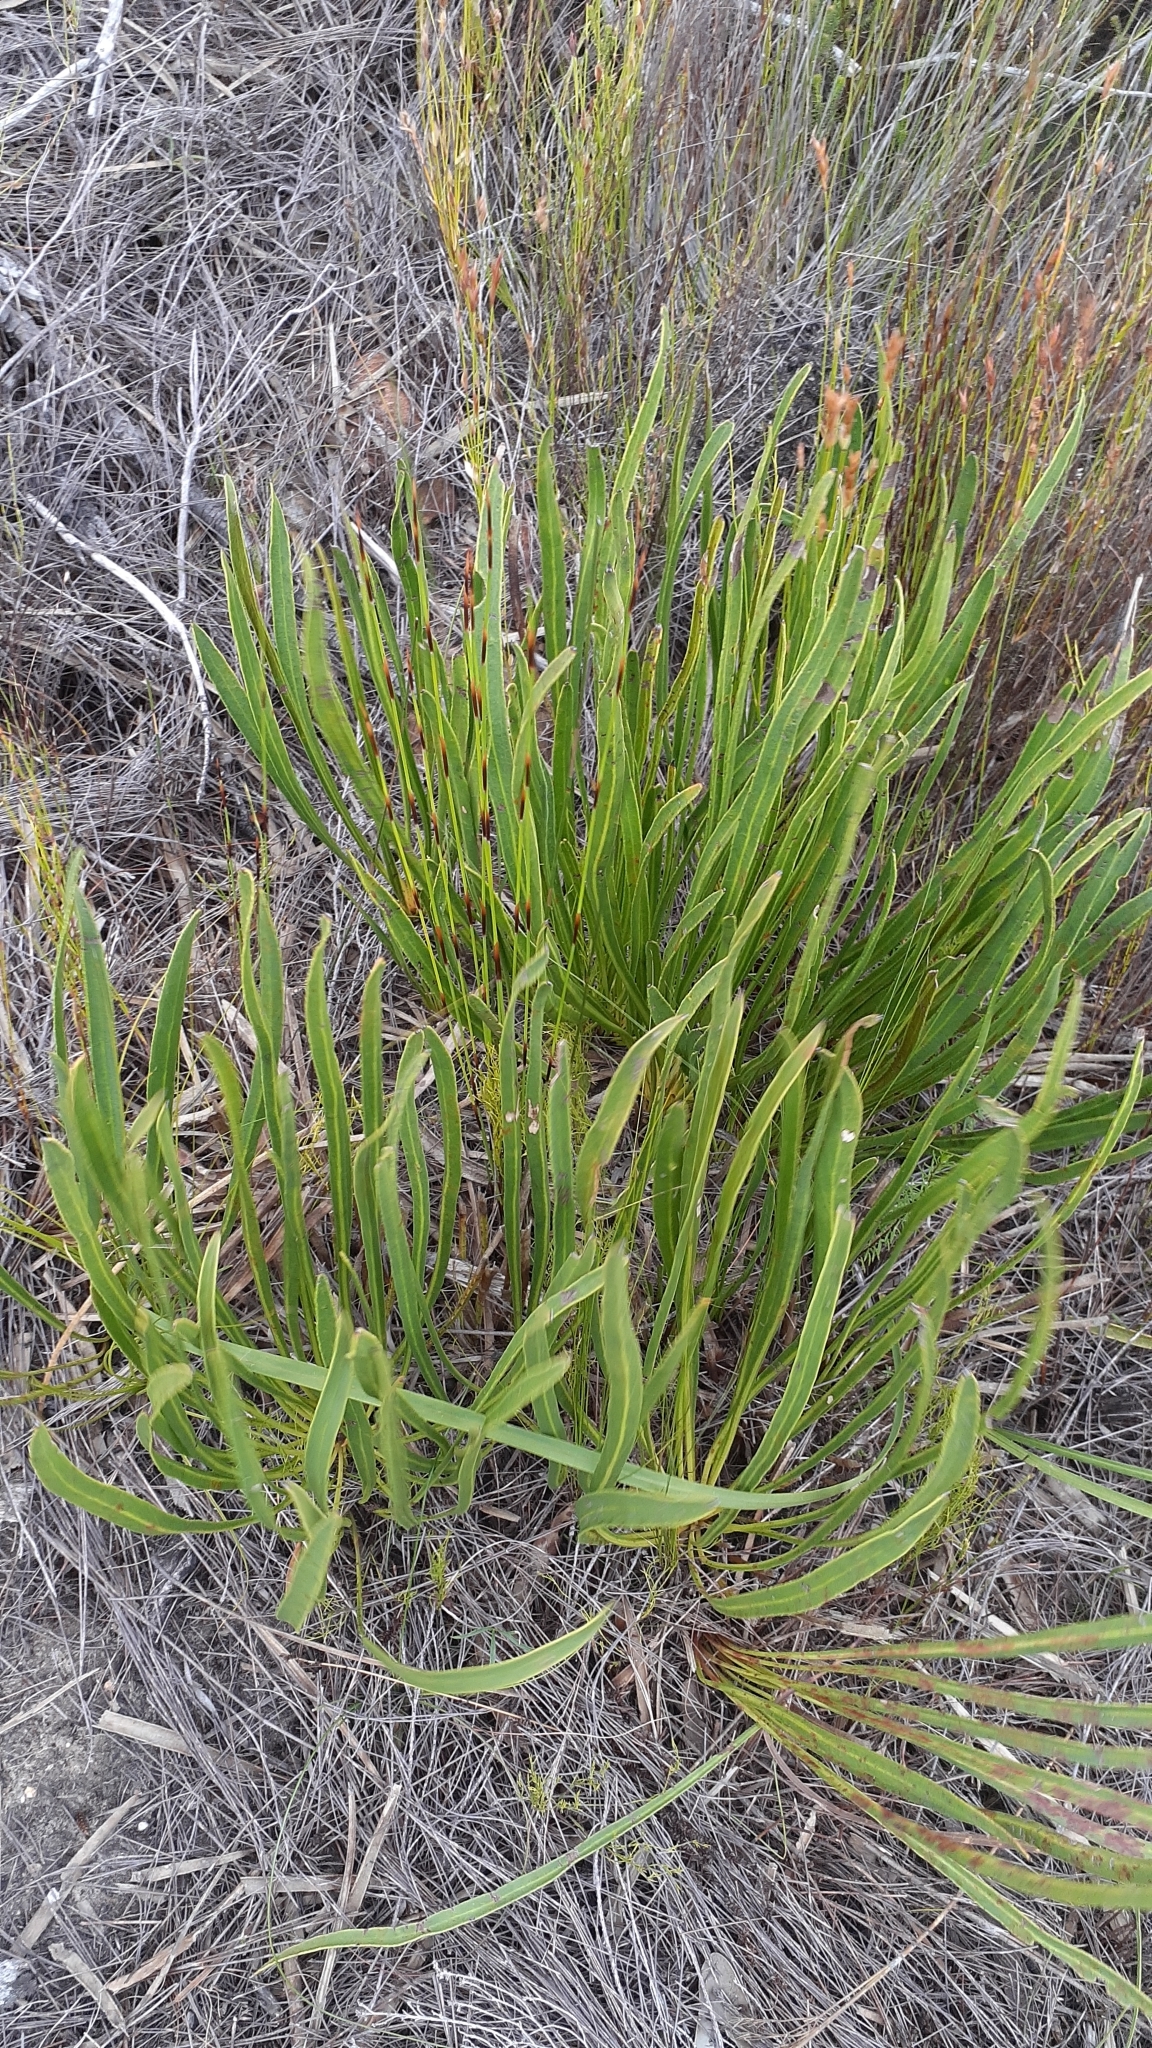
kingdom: Plantae
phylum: Tracheophyta
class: Magnoliopsida
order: Proteales
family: Proteaceae
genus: Protea
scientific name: Protea scabra
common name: Sandpaper-leaf sugarbush
